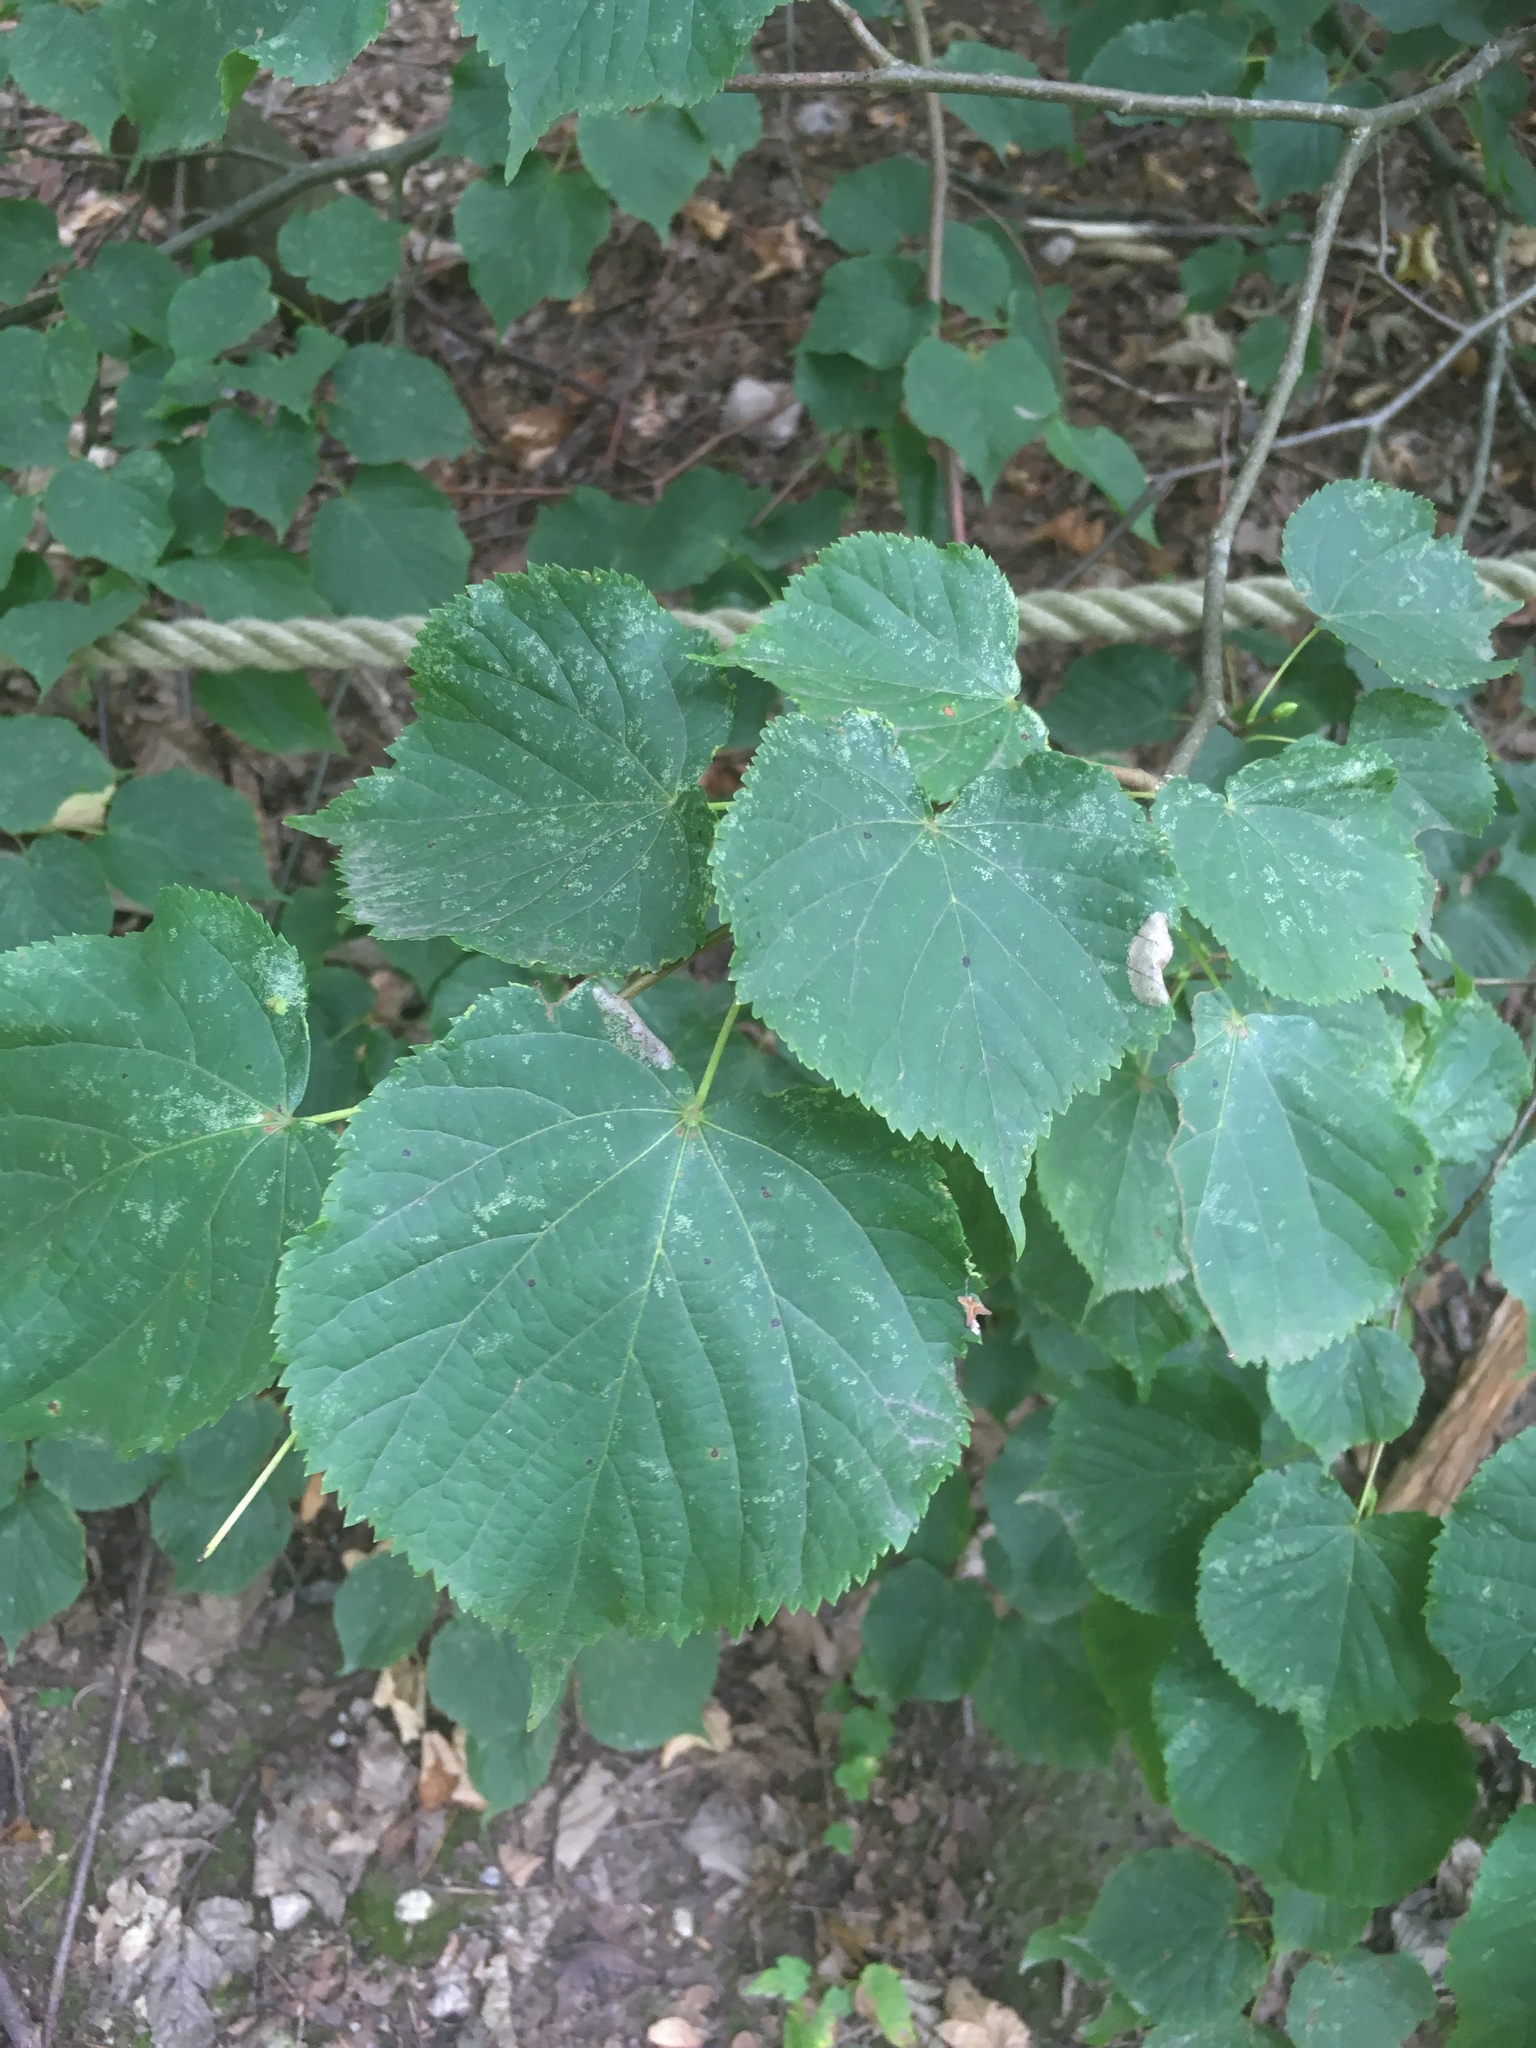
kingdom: Plantae
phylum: Tracheophyta
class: Magnoliopsida
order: Malvales
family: Malvaceae
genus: Tilia
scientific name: Tilia cordata
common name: Small-leaved lime
